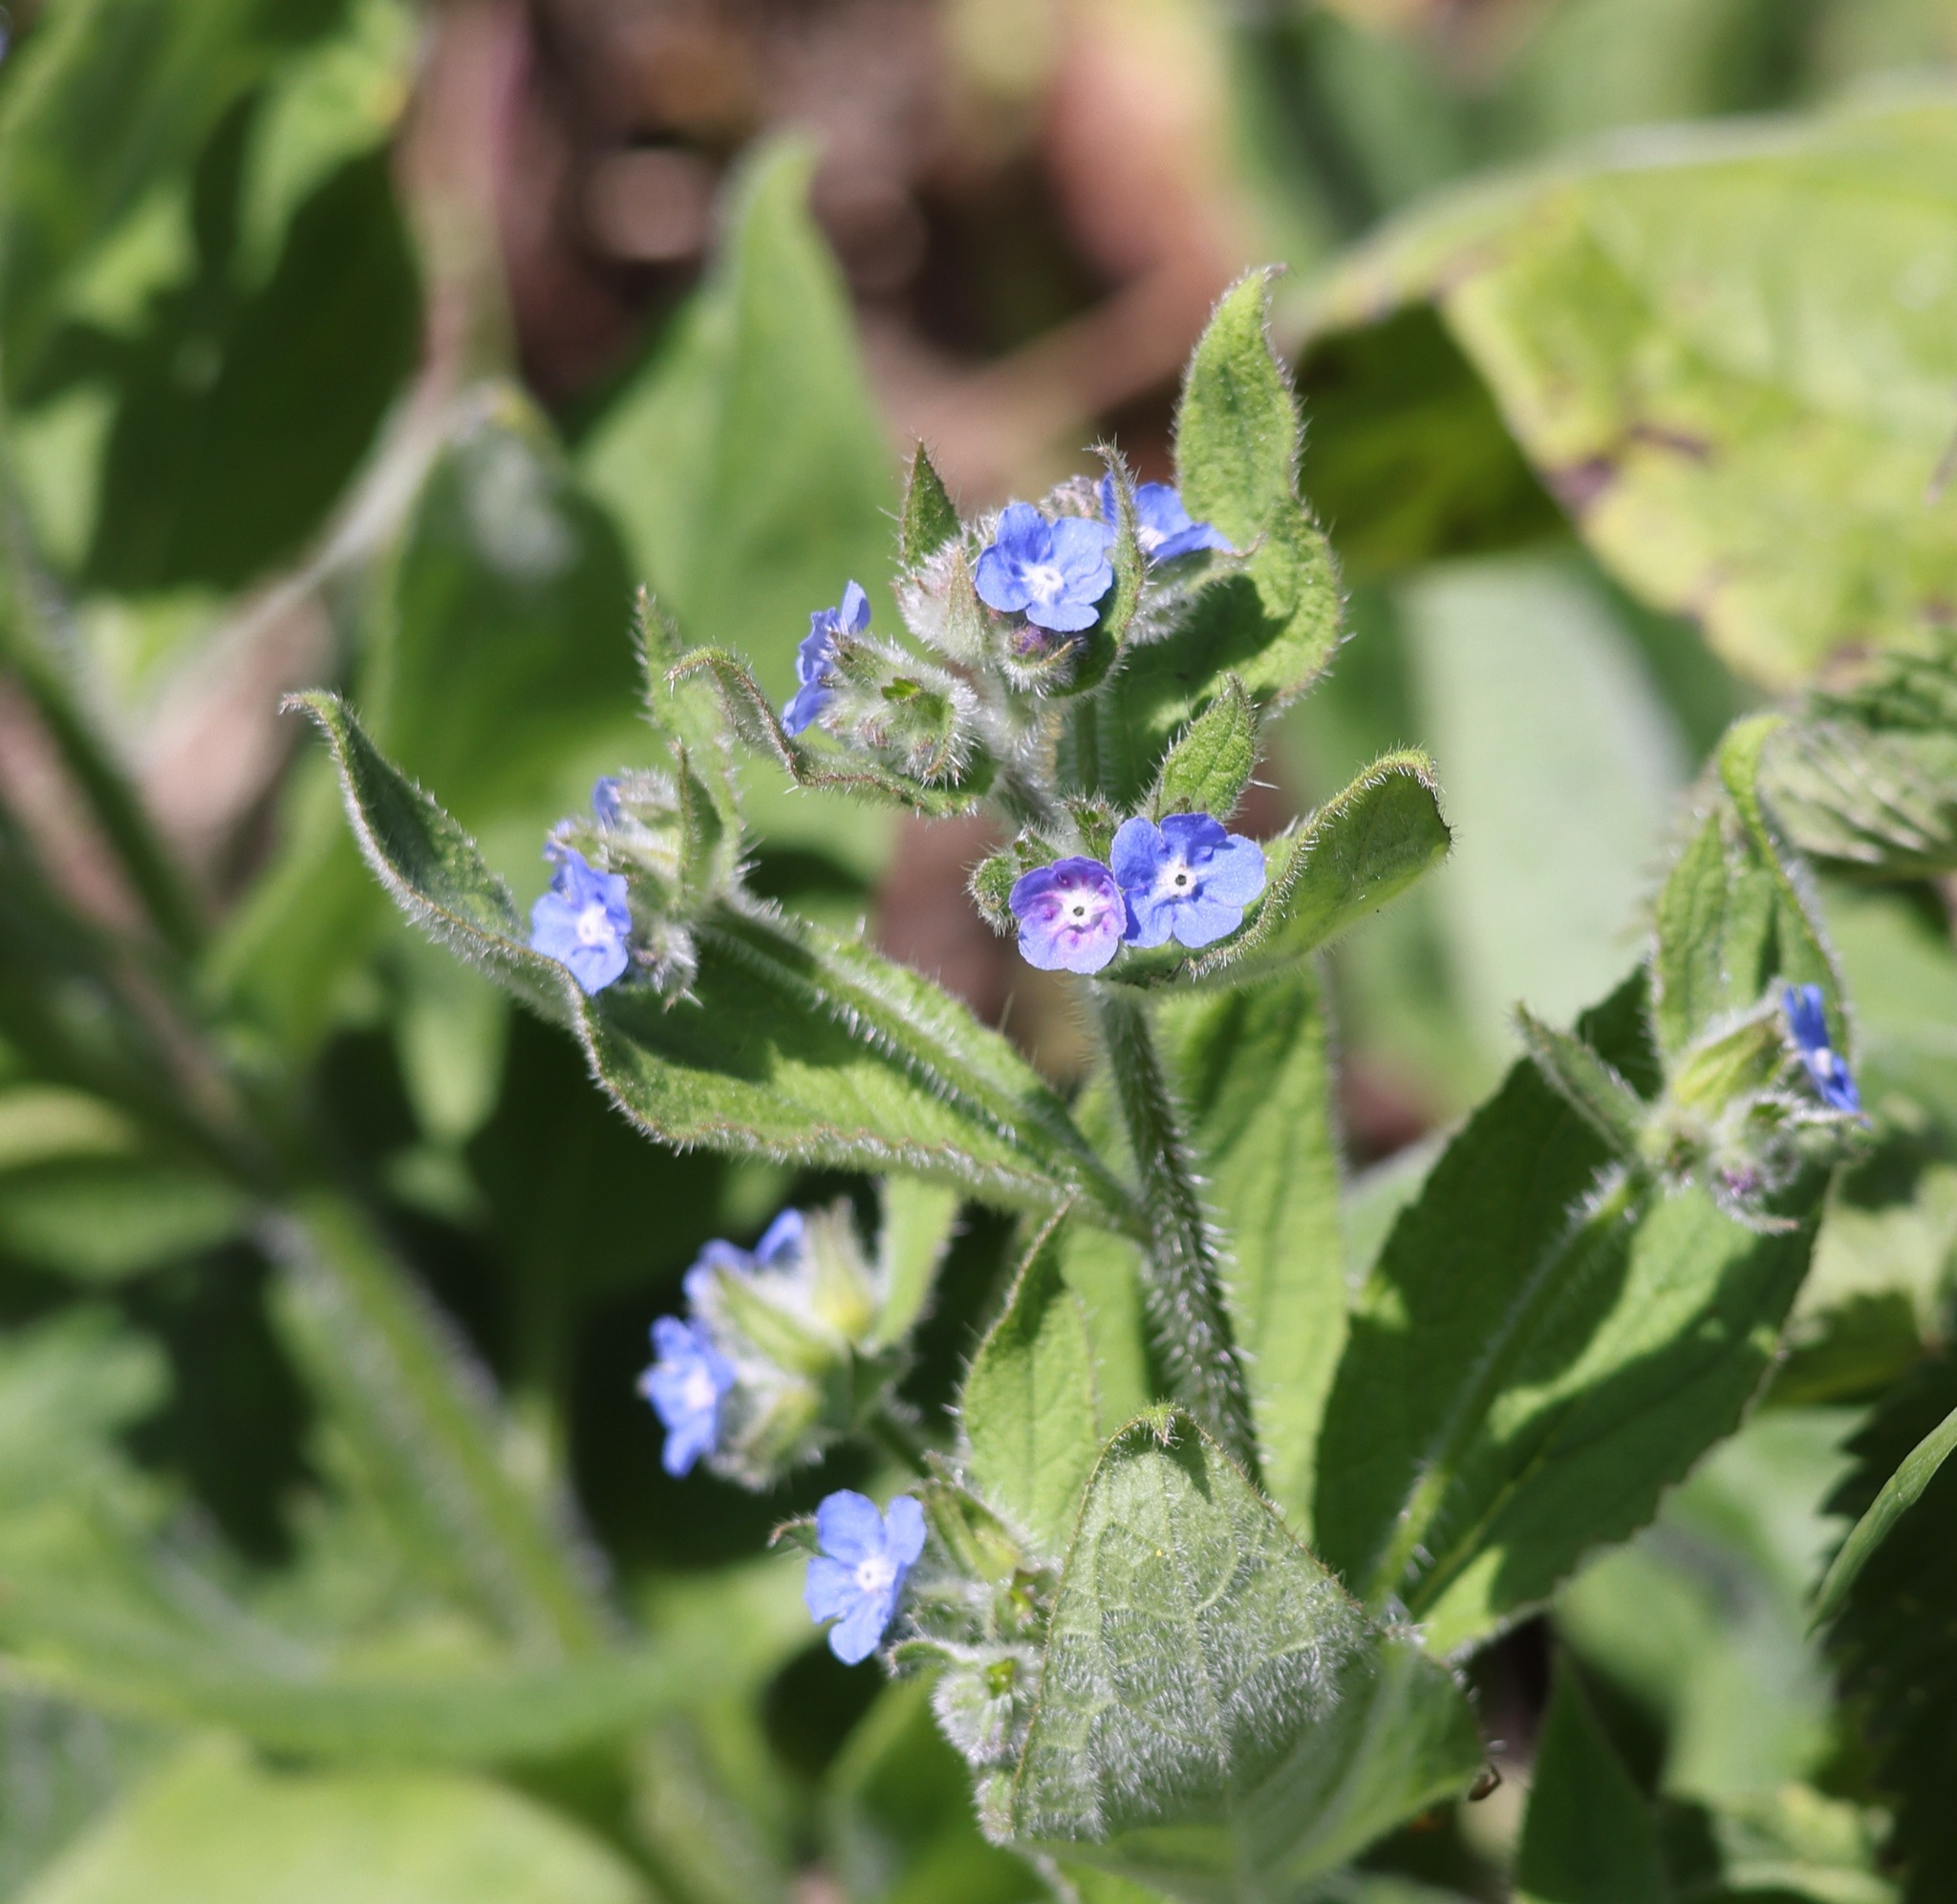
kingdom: Plantae
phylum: Tracheophyta
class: Magnoliopsida
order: Boraginales
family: Boraginaceae
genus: Pentaglottis
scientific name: Pentaglottis sempervirens
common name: Green alkanet
